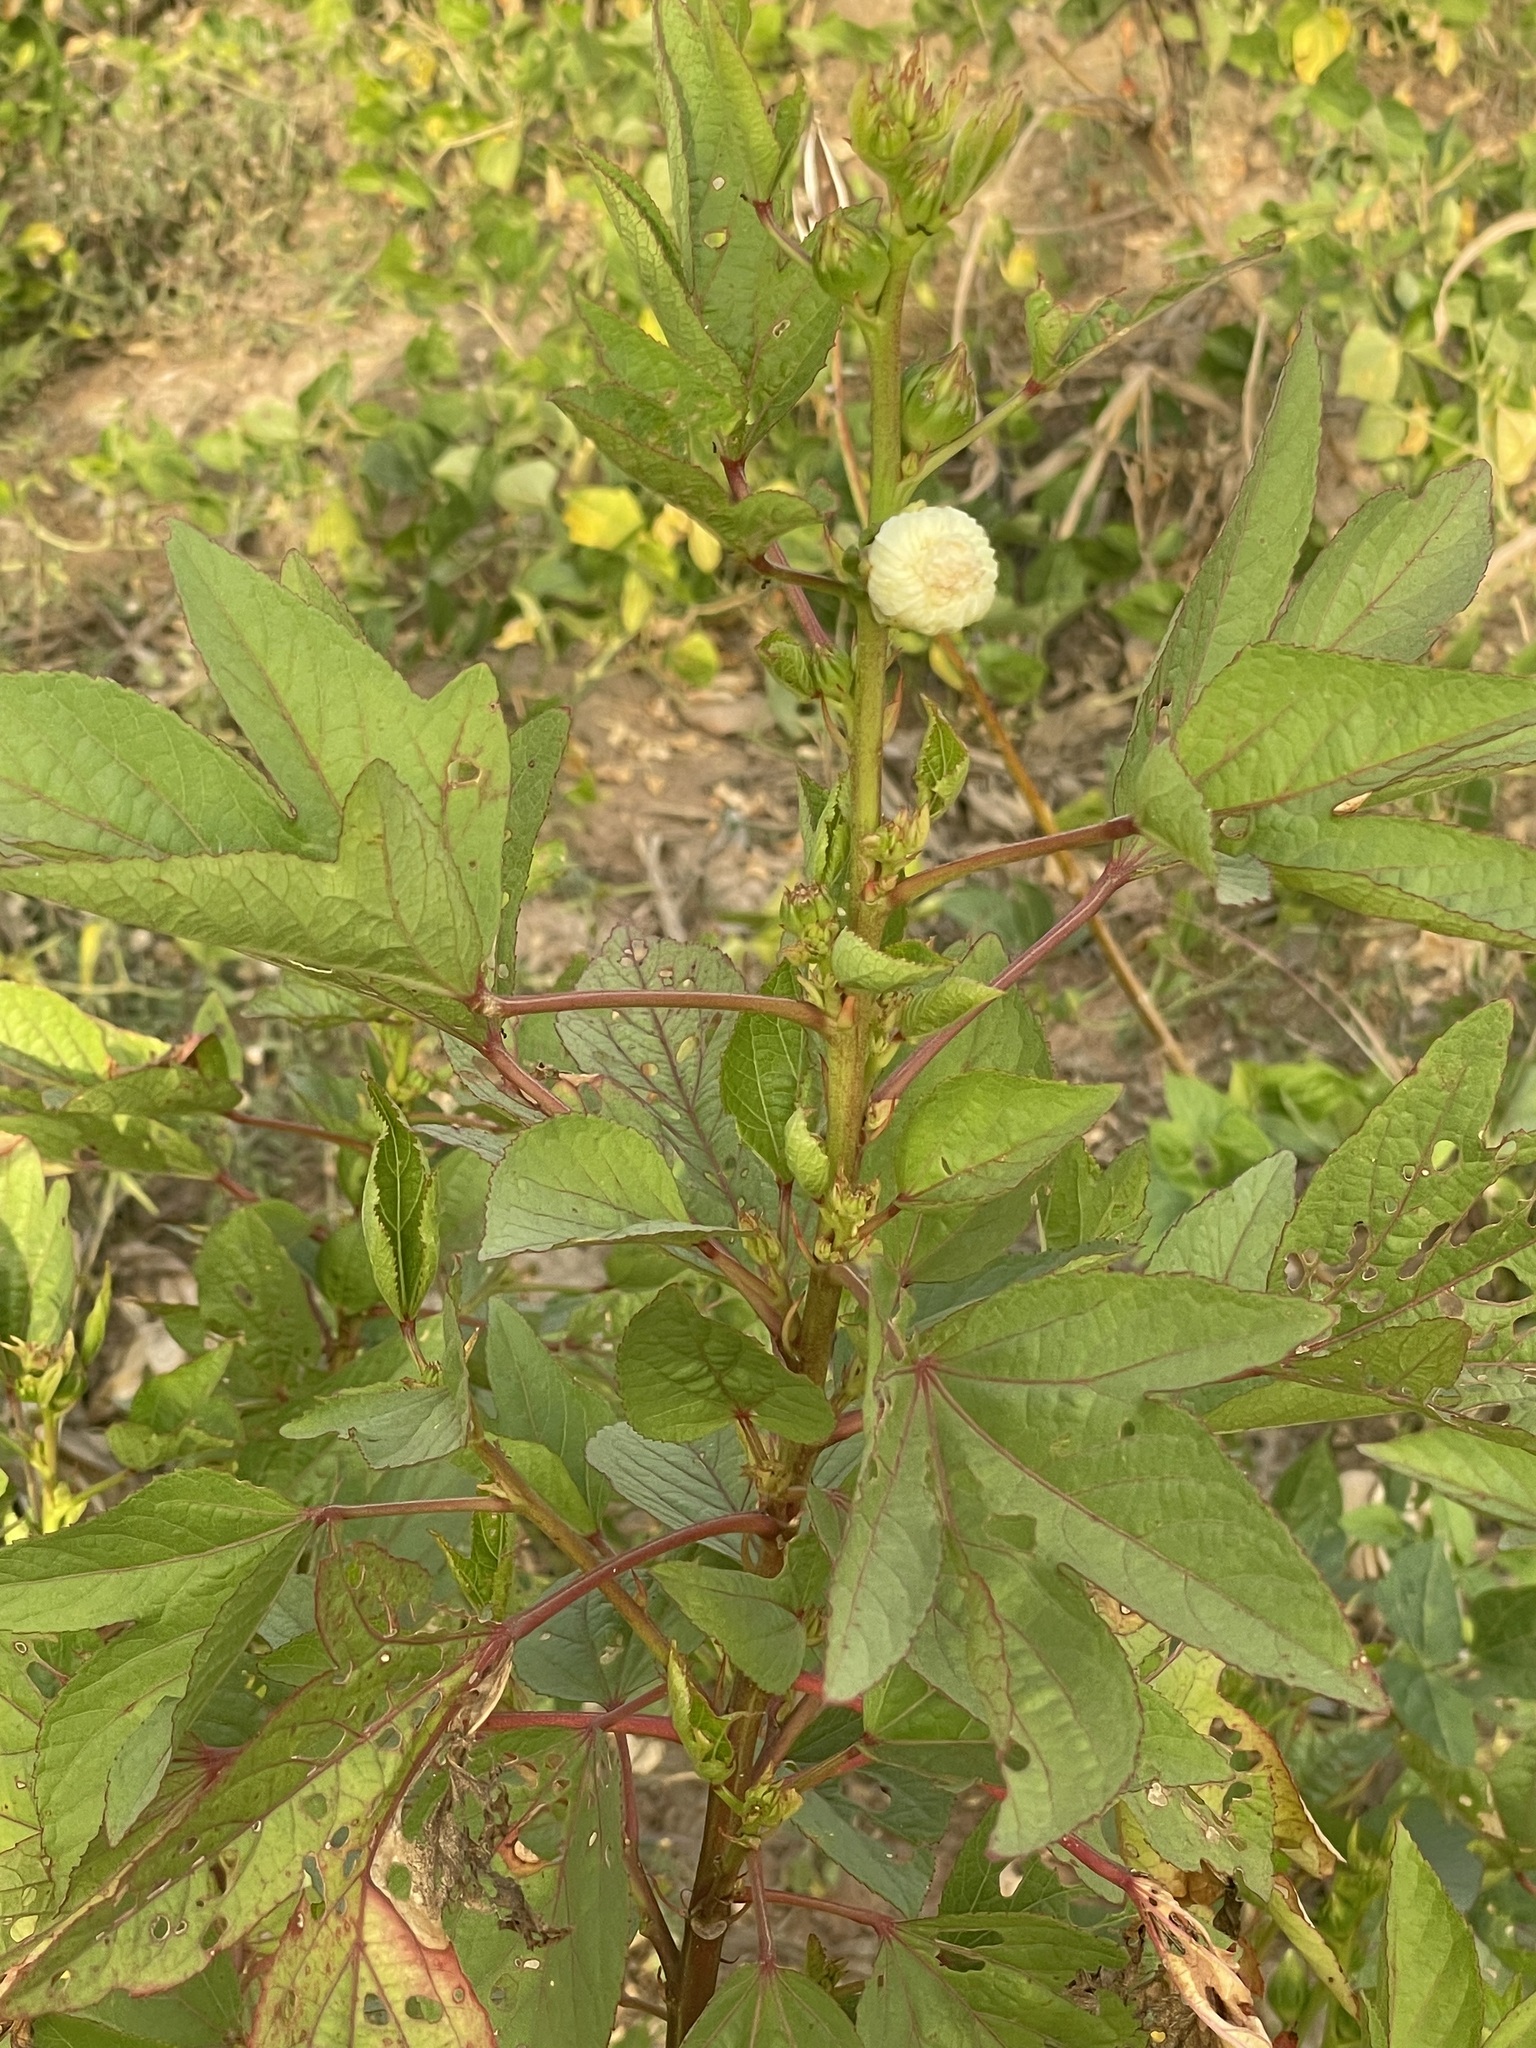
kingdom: Plantae
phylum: Tracheophyta
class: Magnoliopsida
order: Malvales
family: Malvaceae
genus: Hibiscus
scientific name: Hibiscus sabdariffa
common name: Roselle
